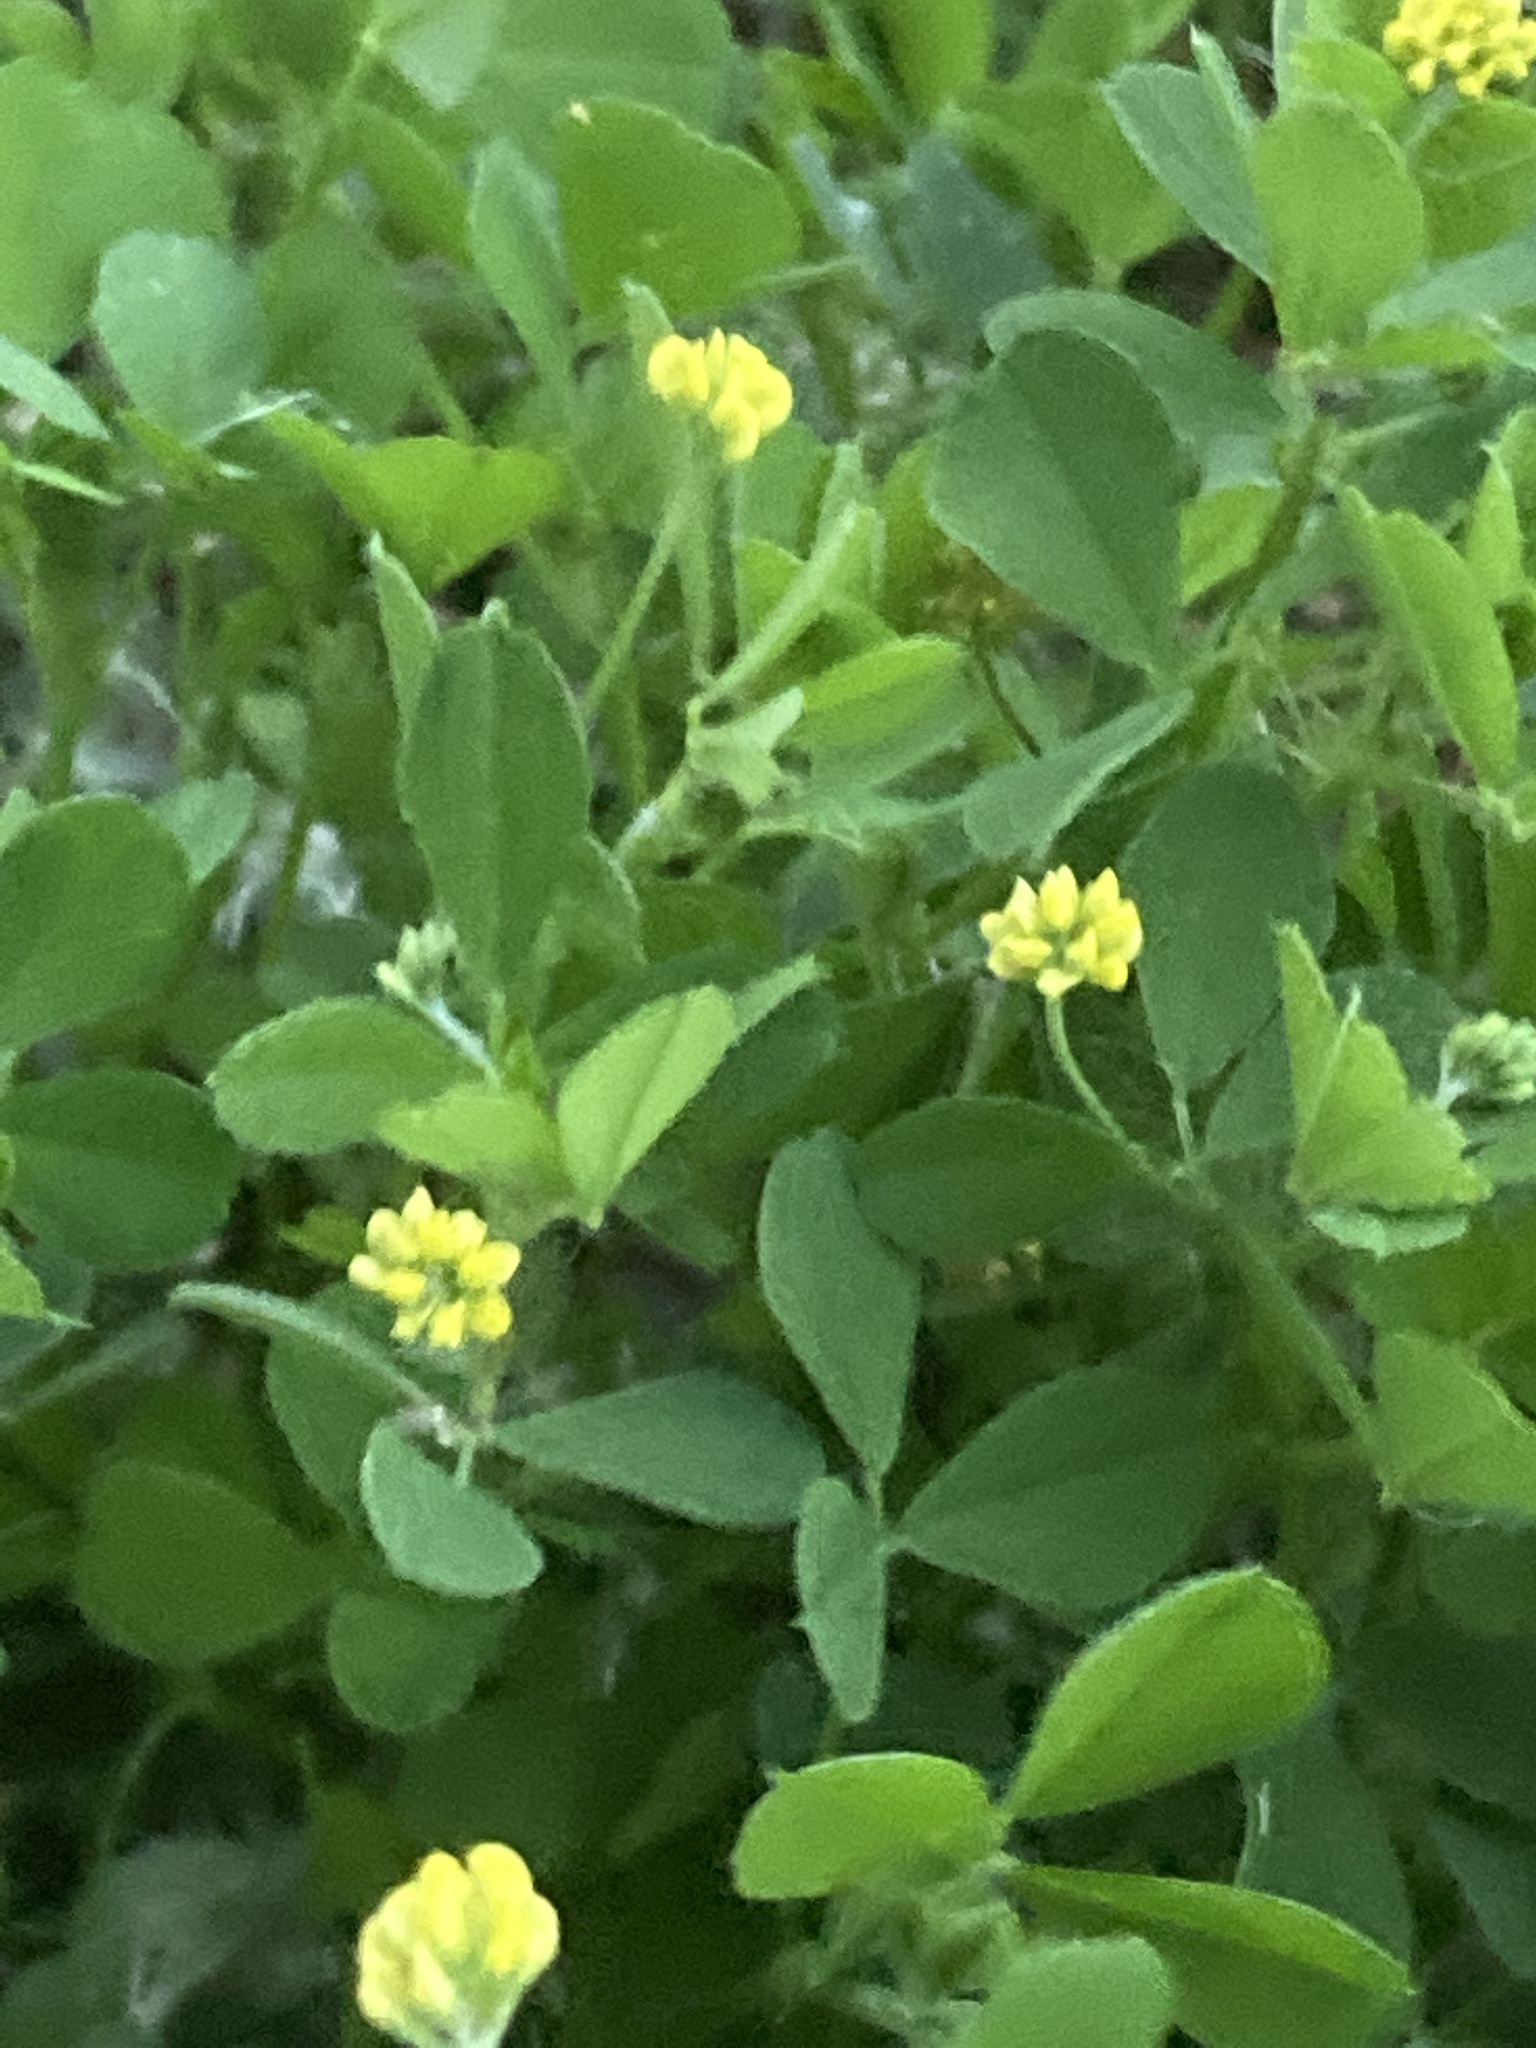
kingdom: Plantae
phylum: Tracheophyta
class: Magnoliopsida
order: Fabales
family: Fabaceae
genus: Medicago
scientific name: Medicago lupulina
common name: Black medick
